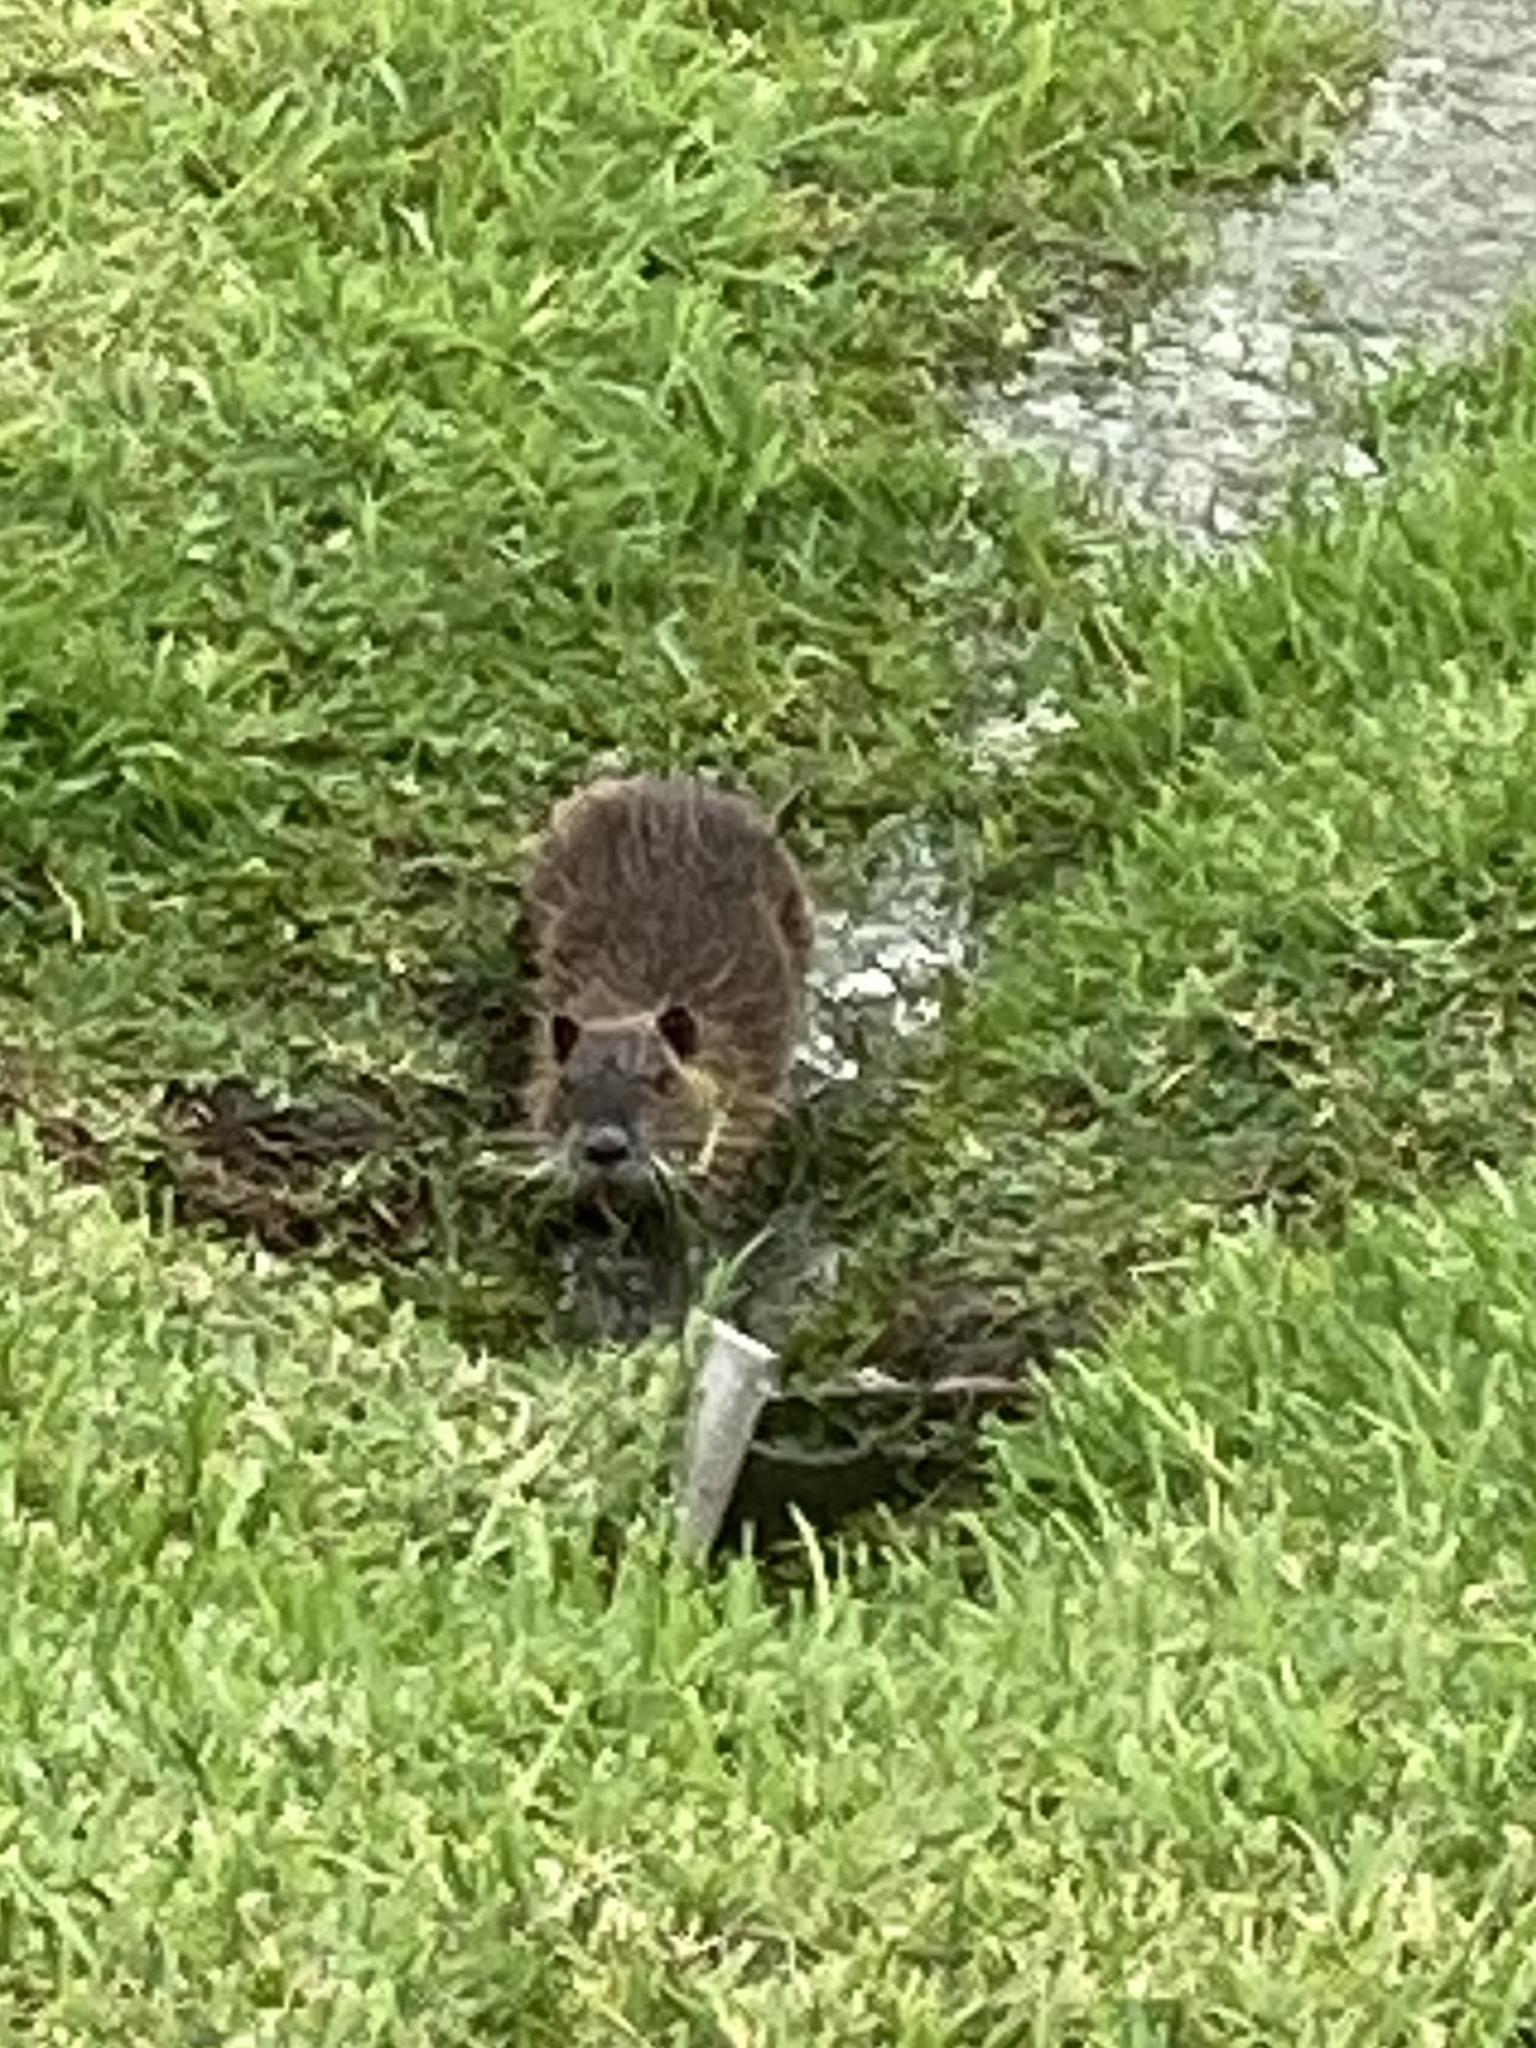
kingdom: Animalia
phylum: Chordata
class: Mammalia
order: Rodentia
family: Myocastoridae
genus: Myocastor
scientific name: Myocastor coypus
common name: Coypu
